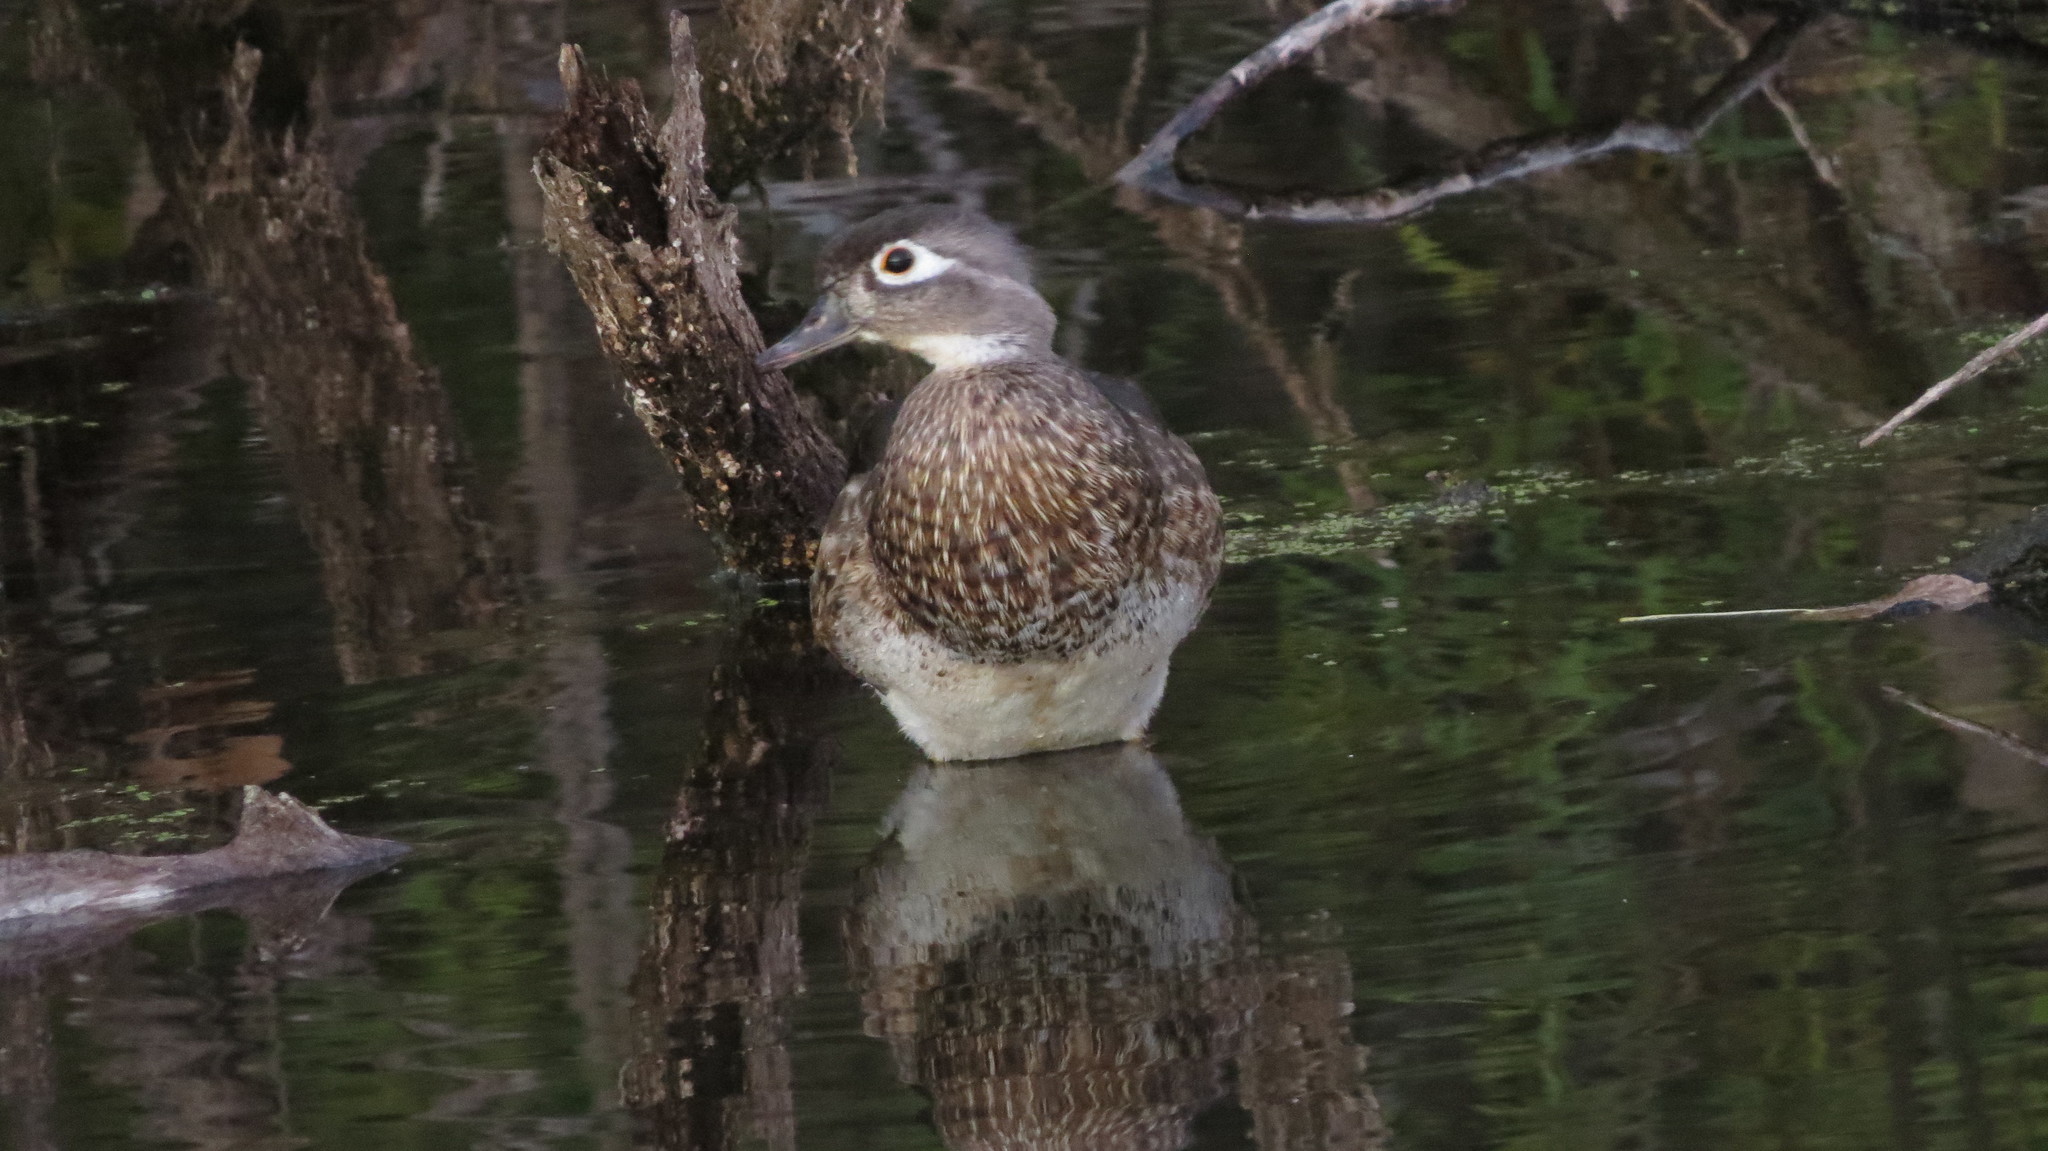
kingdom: Animalia
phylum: Chordata
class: Aves
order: Anseriformes
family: Anatidae
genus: Aix
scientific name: Aix sponsa
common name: Wood duck
